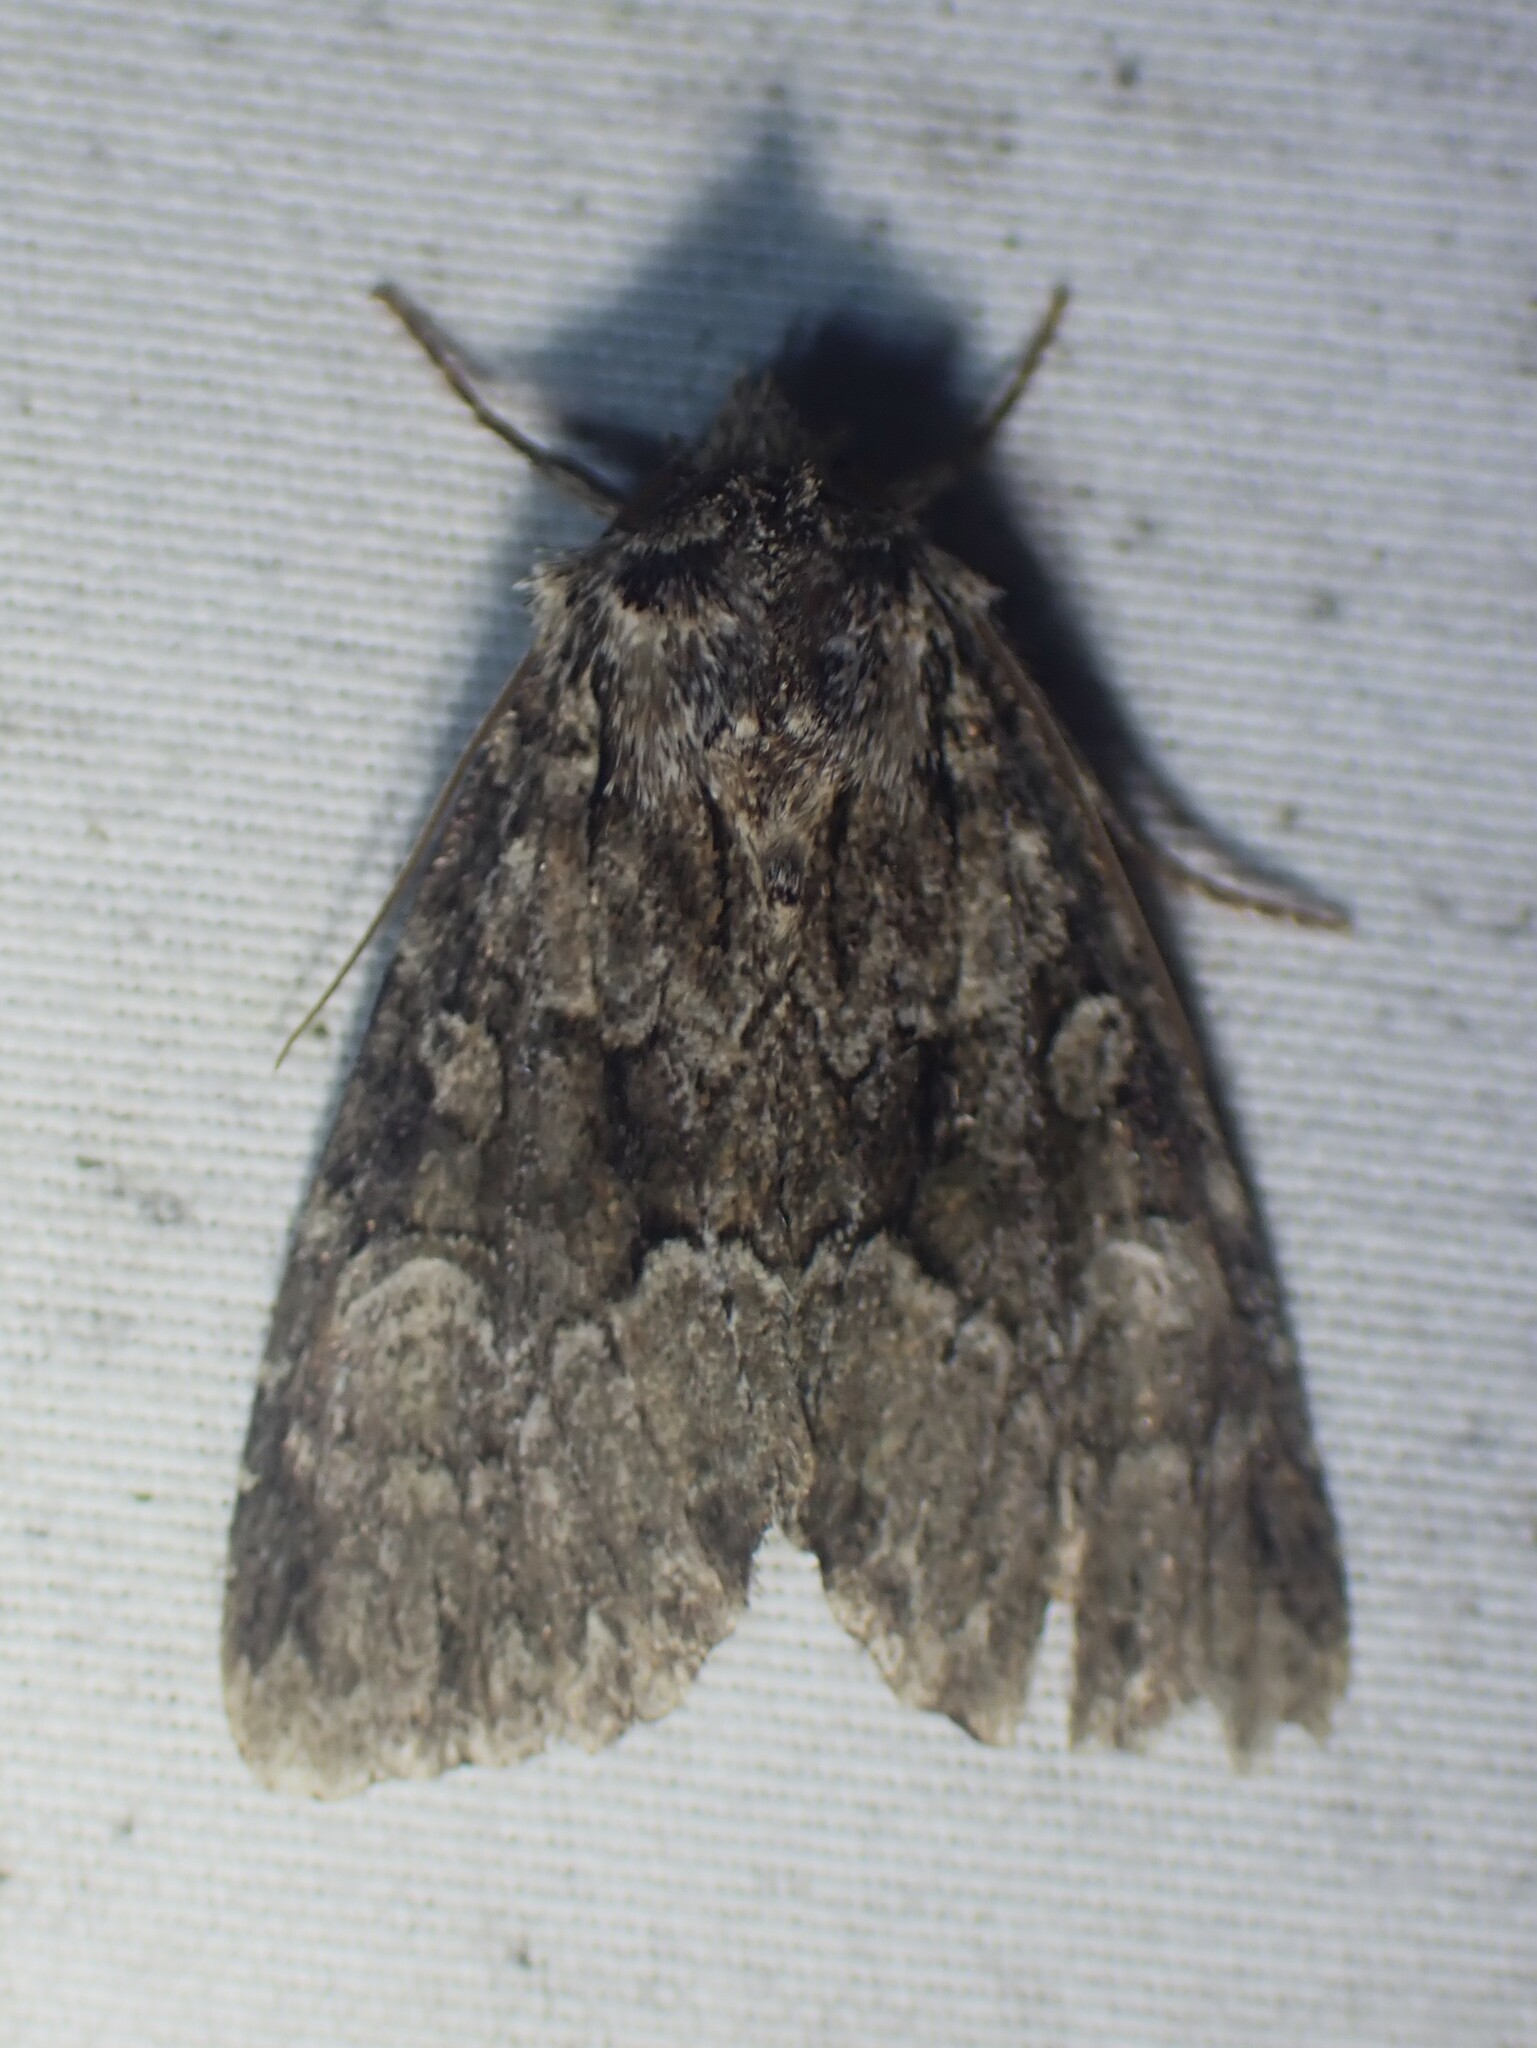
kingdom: Animalia
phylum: Arthropoda
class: Insecta
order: Lepidoptera
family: Noctuidae
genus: Platypolia
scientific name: Platypolia mactata
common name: Adorable brocade moth
